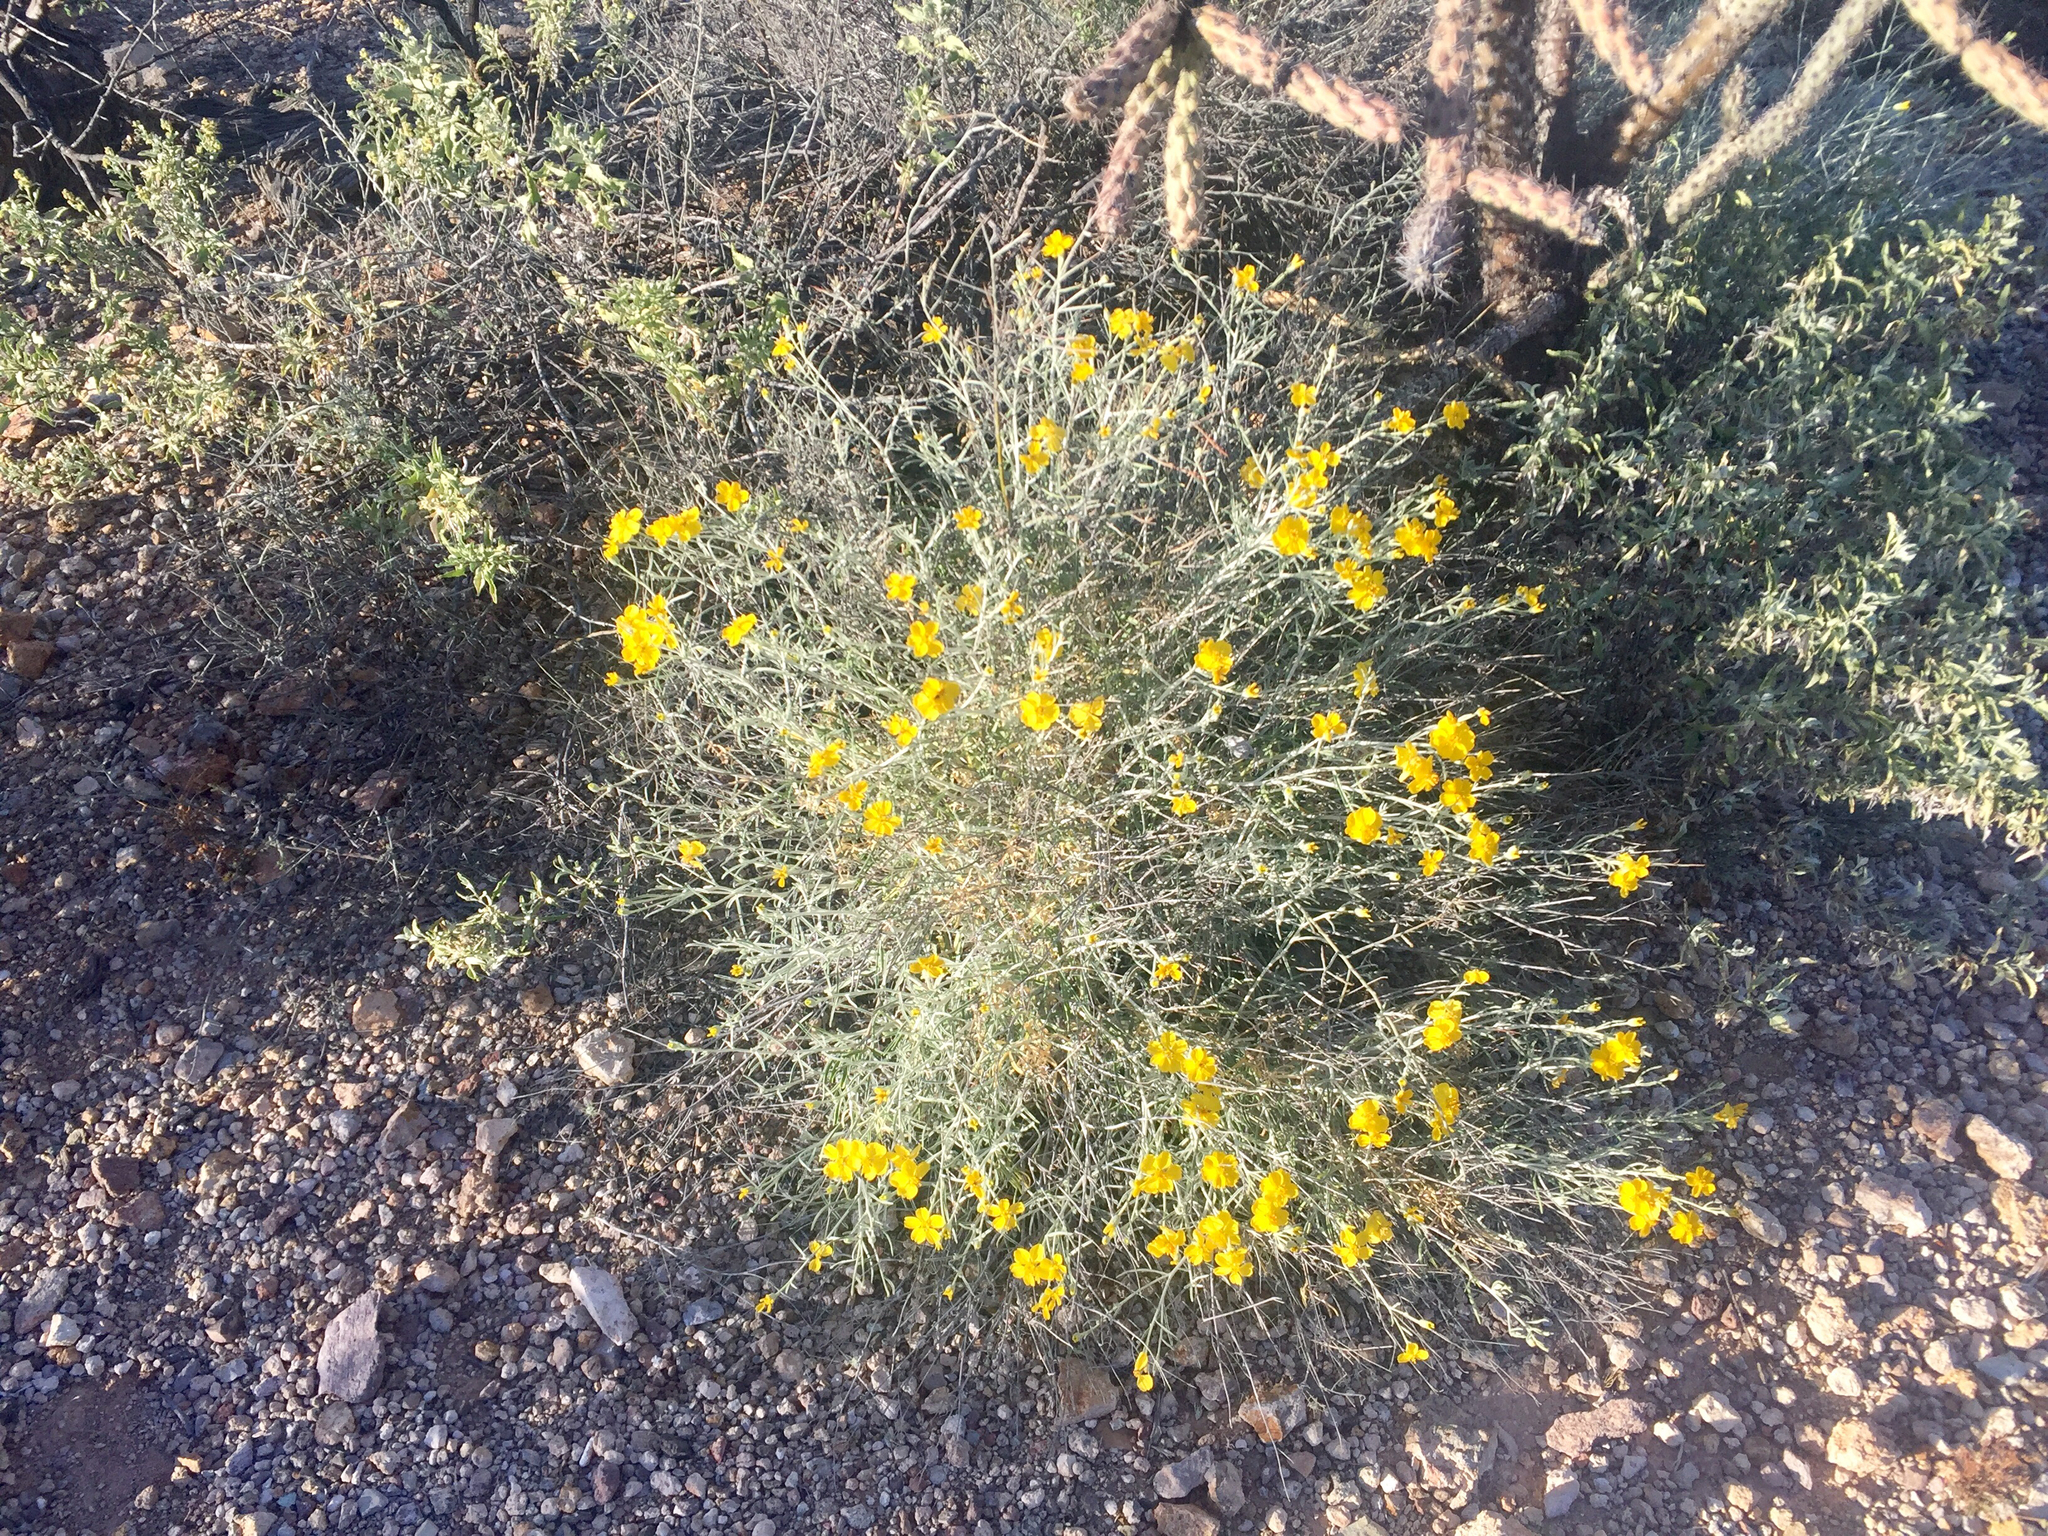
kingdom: Plantae
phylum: Tracheophyta
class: Magnoliopsida
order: Asterales
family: Asteraceae
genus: Psilostrophe
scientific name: Psilostrophe cooperi
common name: White-stem paper-flower
